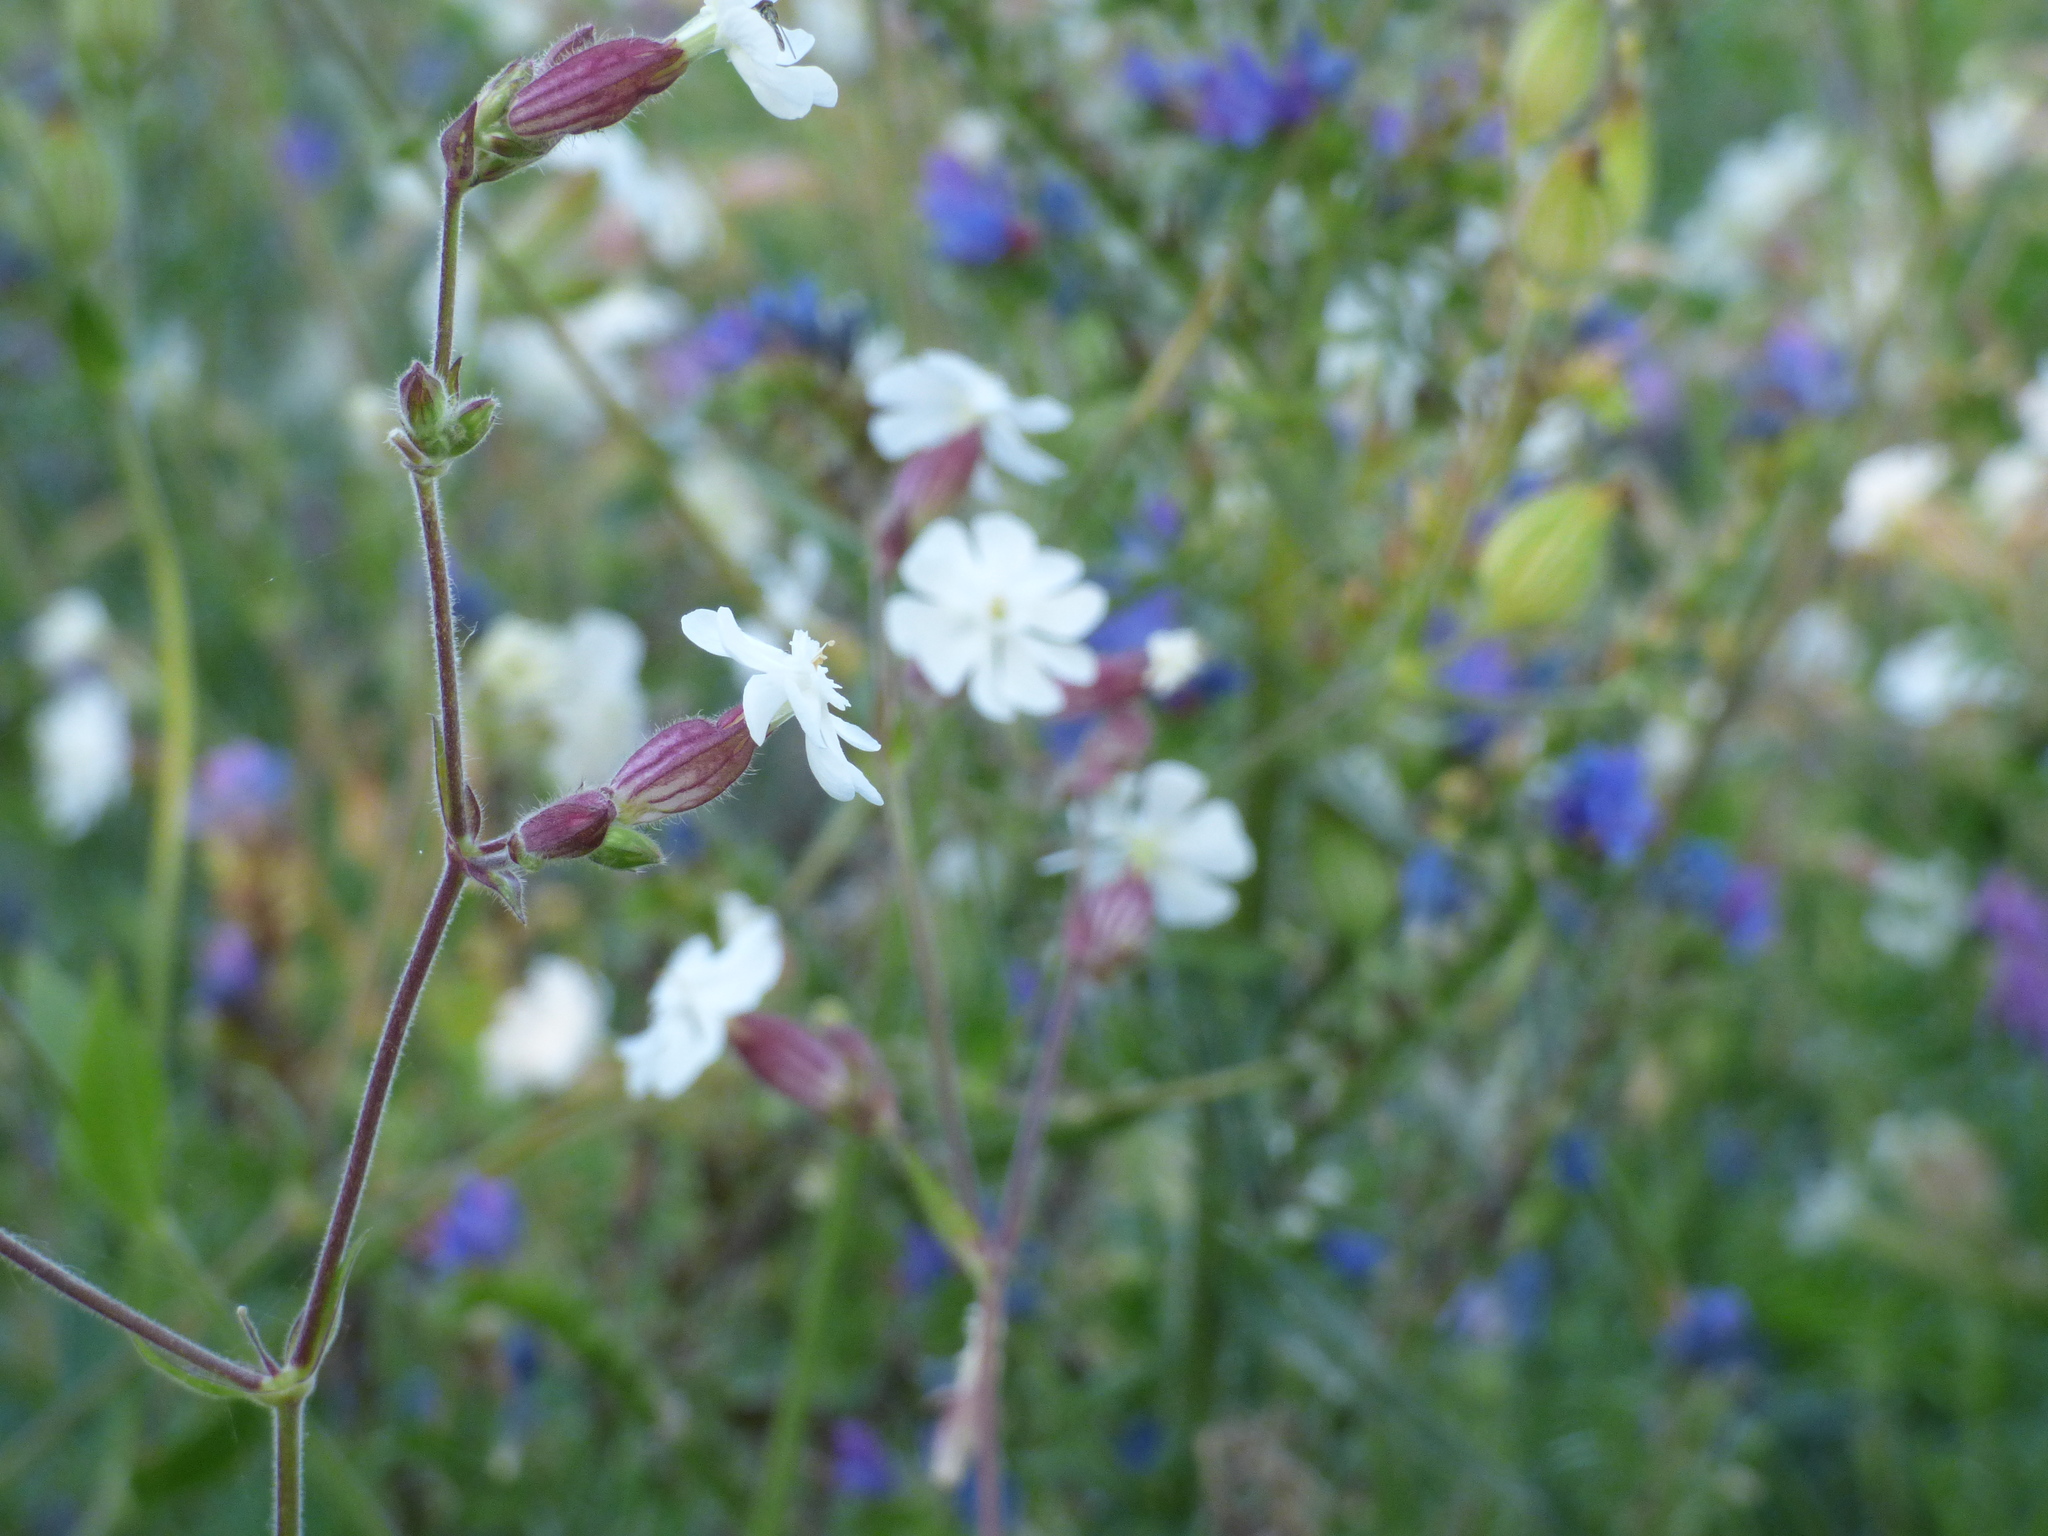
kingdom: Plantae
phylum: Tracheophyta
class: Magnoliopsida
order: Caryophyllales
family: Caryophyllaceae
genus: Silene
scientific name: Silene latifolia
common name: White campion
